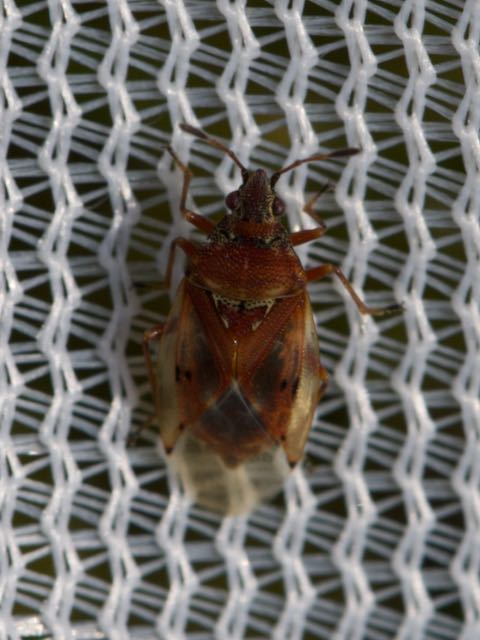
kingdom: Animalia
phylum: Arthropoda
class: Insecta
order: Hemiptera
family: Lygaeidae
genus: Kleidocerys
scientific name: Kleidocerys resedae
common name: Birch catkin bug
